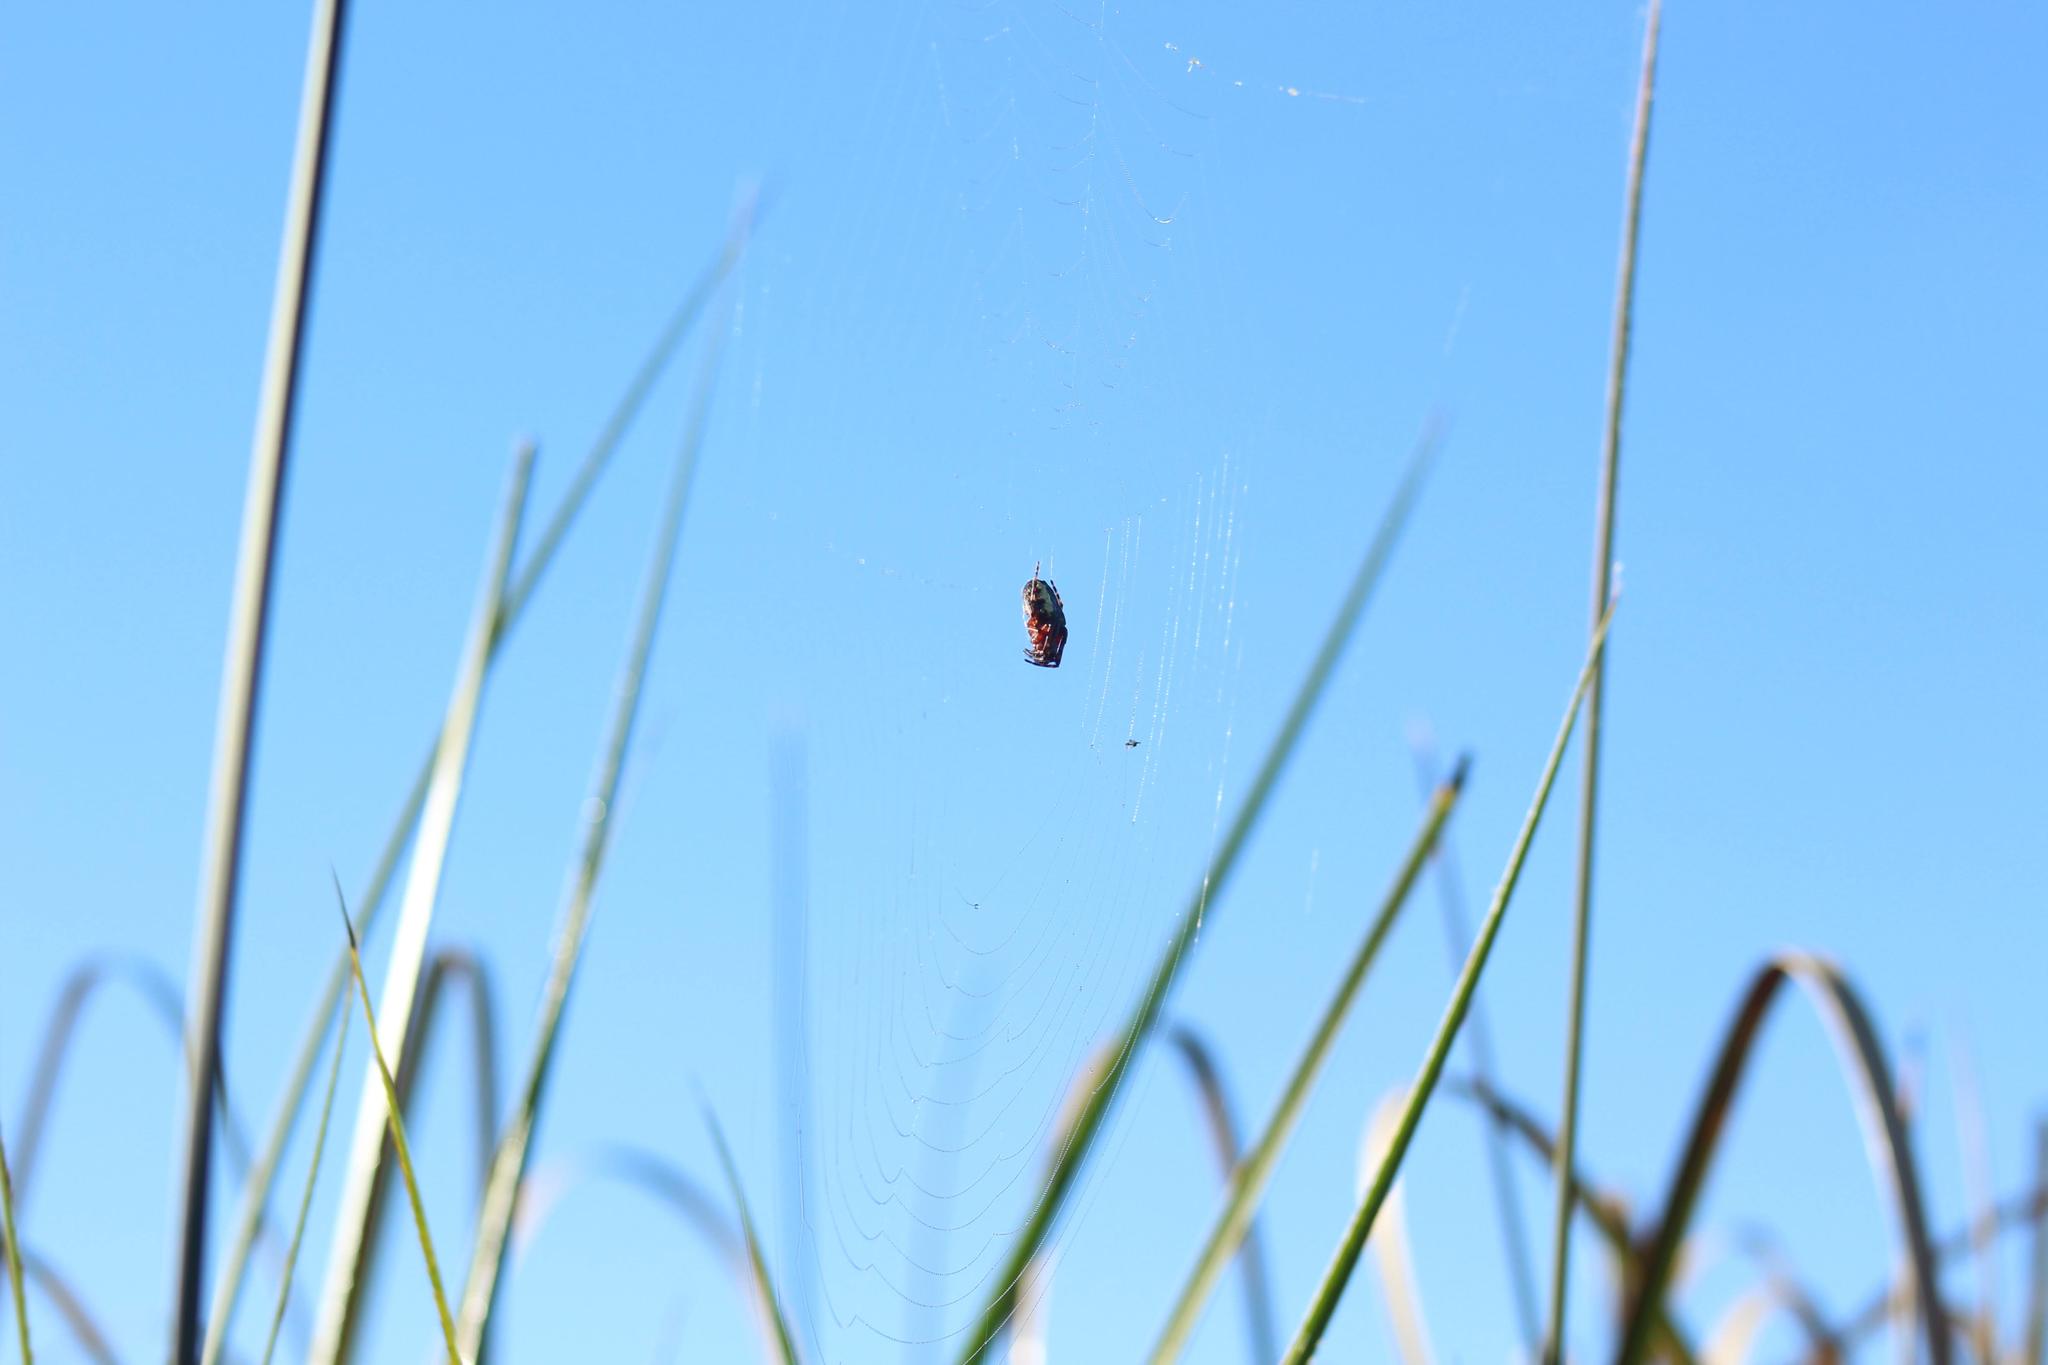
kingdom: Animalia
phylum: Arthropoda
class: Arachnida
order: Araneae
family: Araneidae
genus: Parawixia
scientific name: Parawixia undulata
